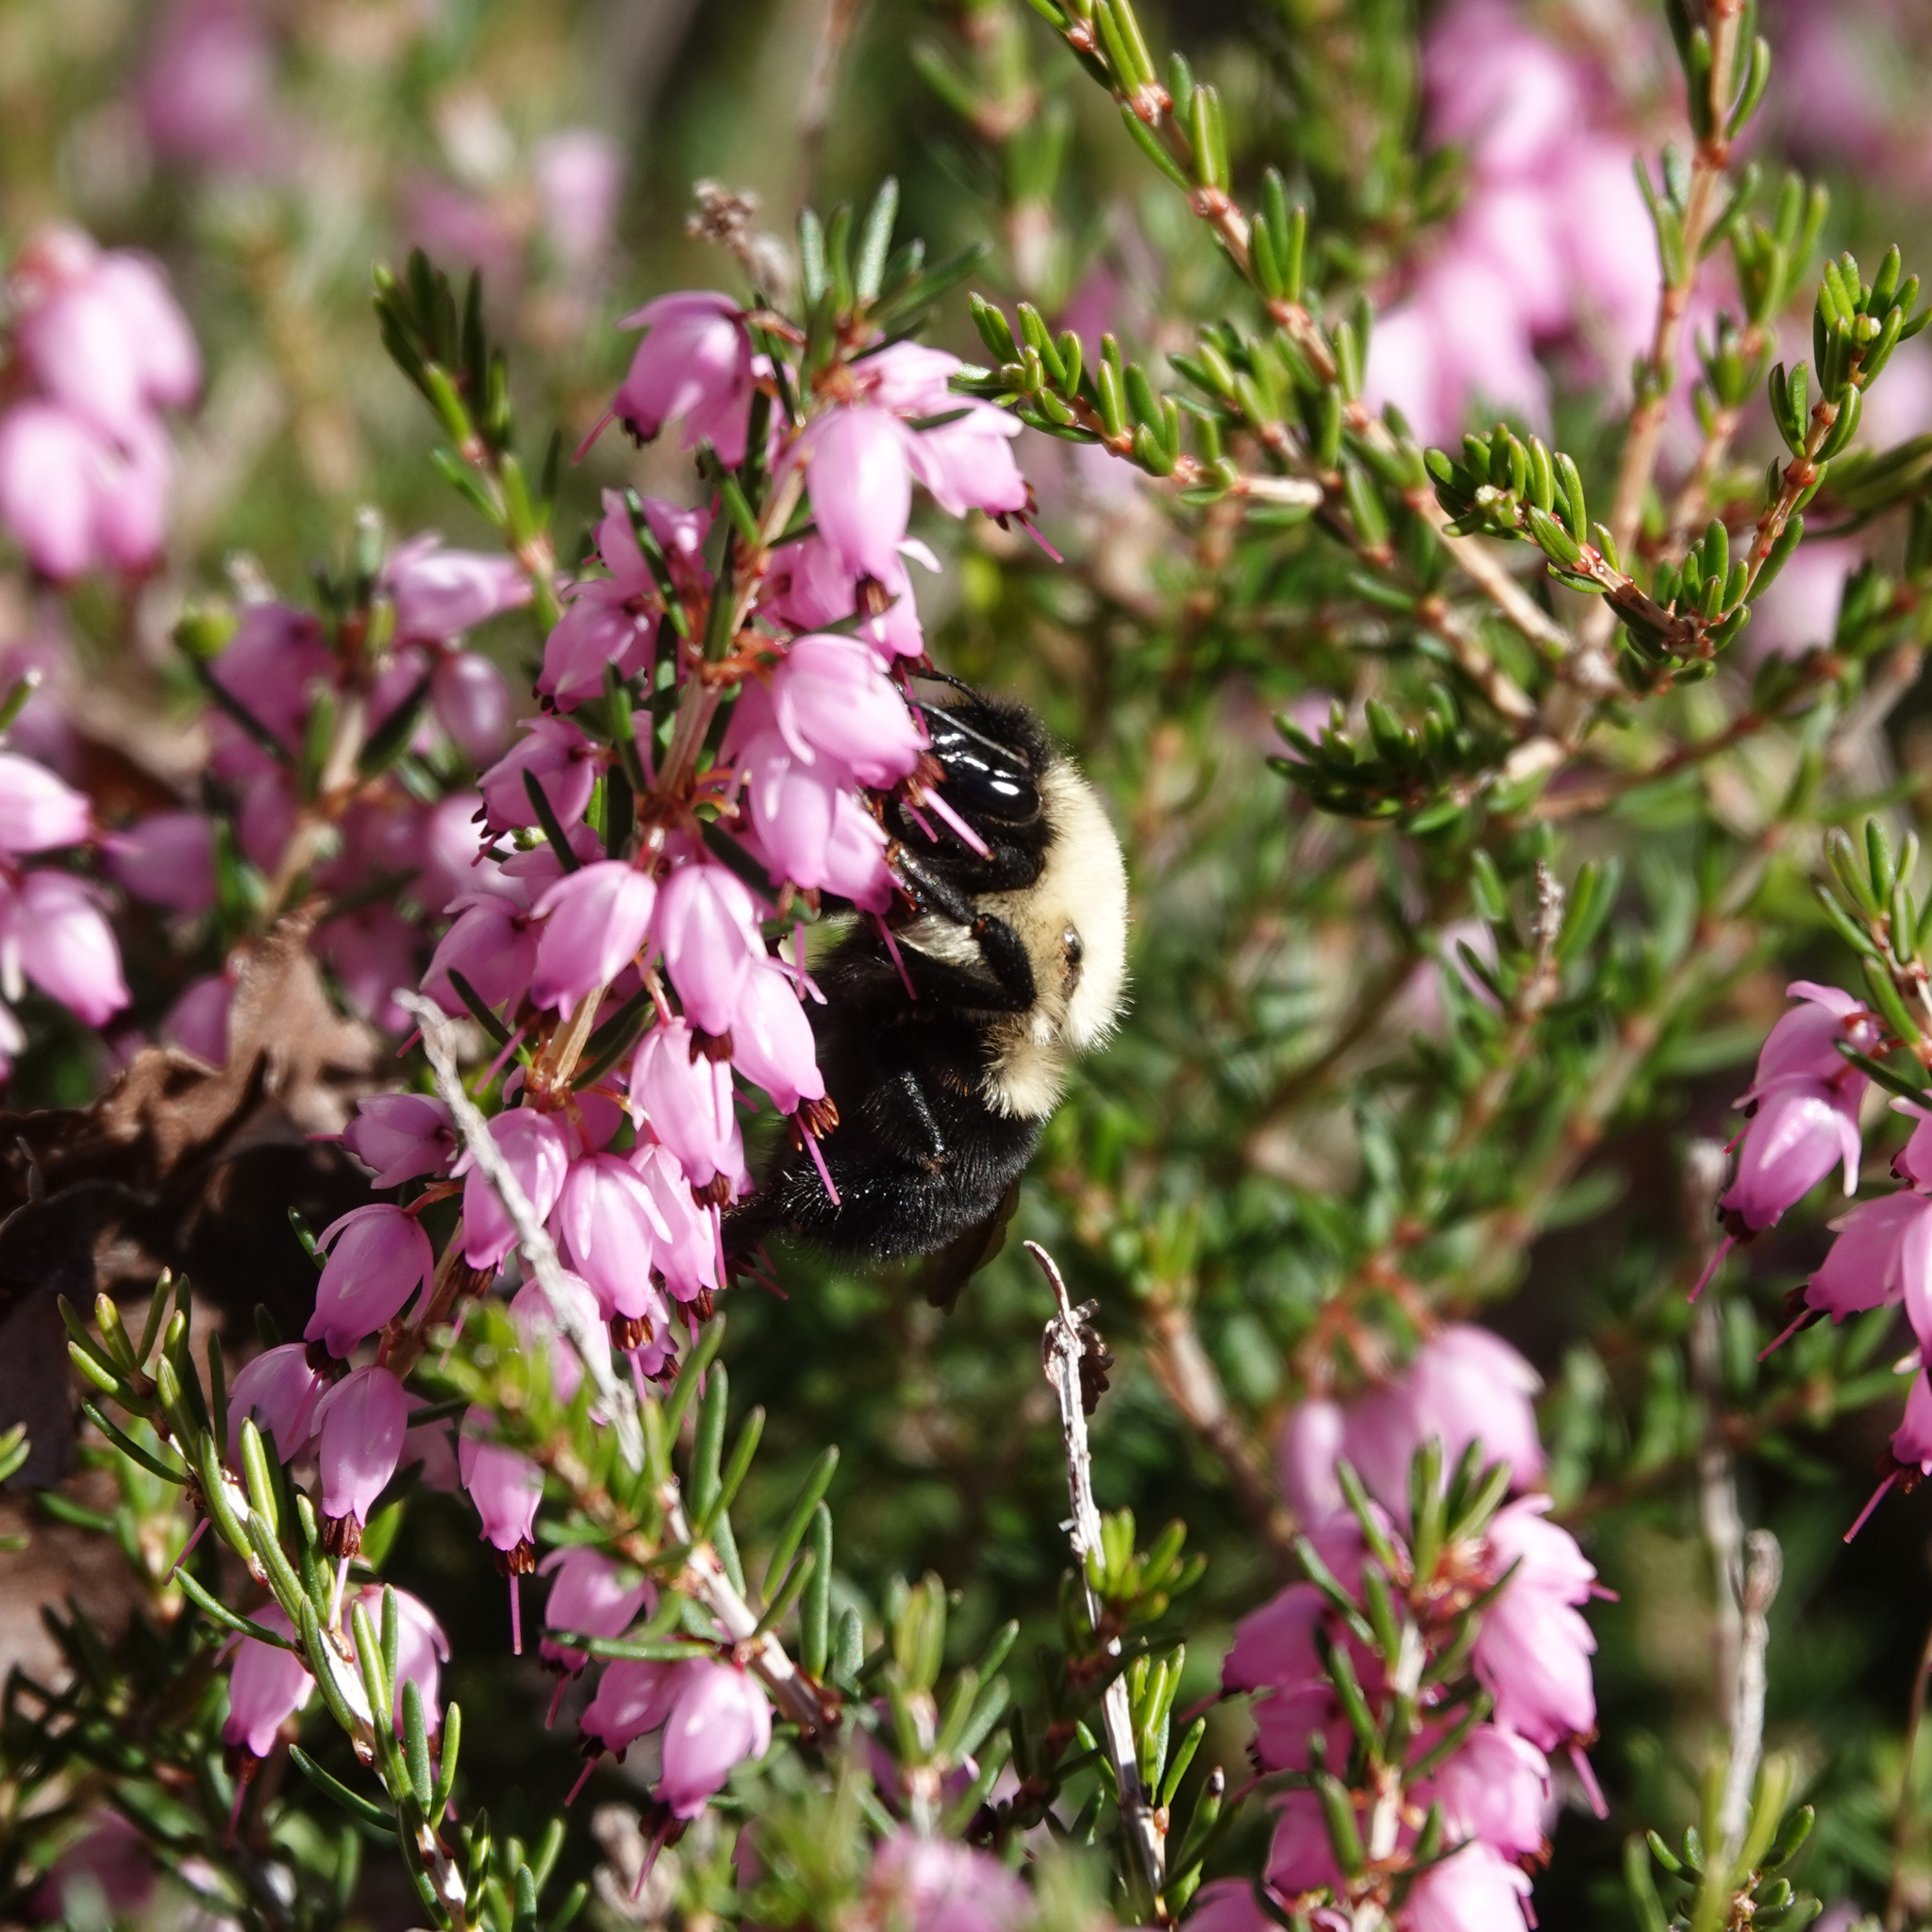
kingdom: Animalia
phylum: Arthropoda
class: Insecta
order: Hymenoptera
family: Apidae
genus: Bombus
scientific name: Bombus bimaculatus
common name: Two-spotted bumble bee
